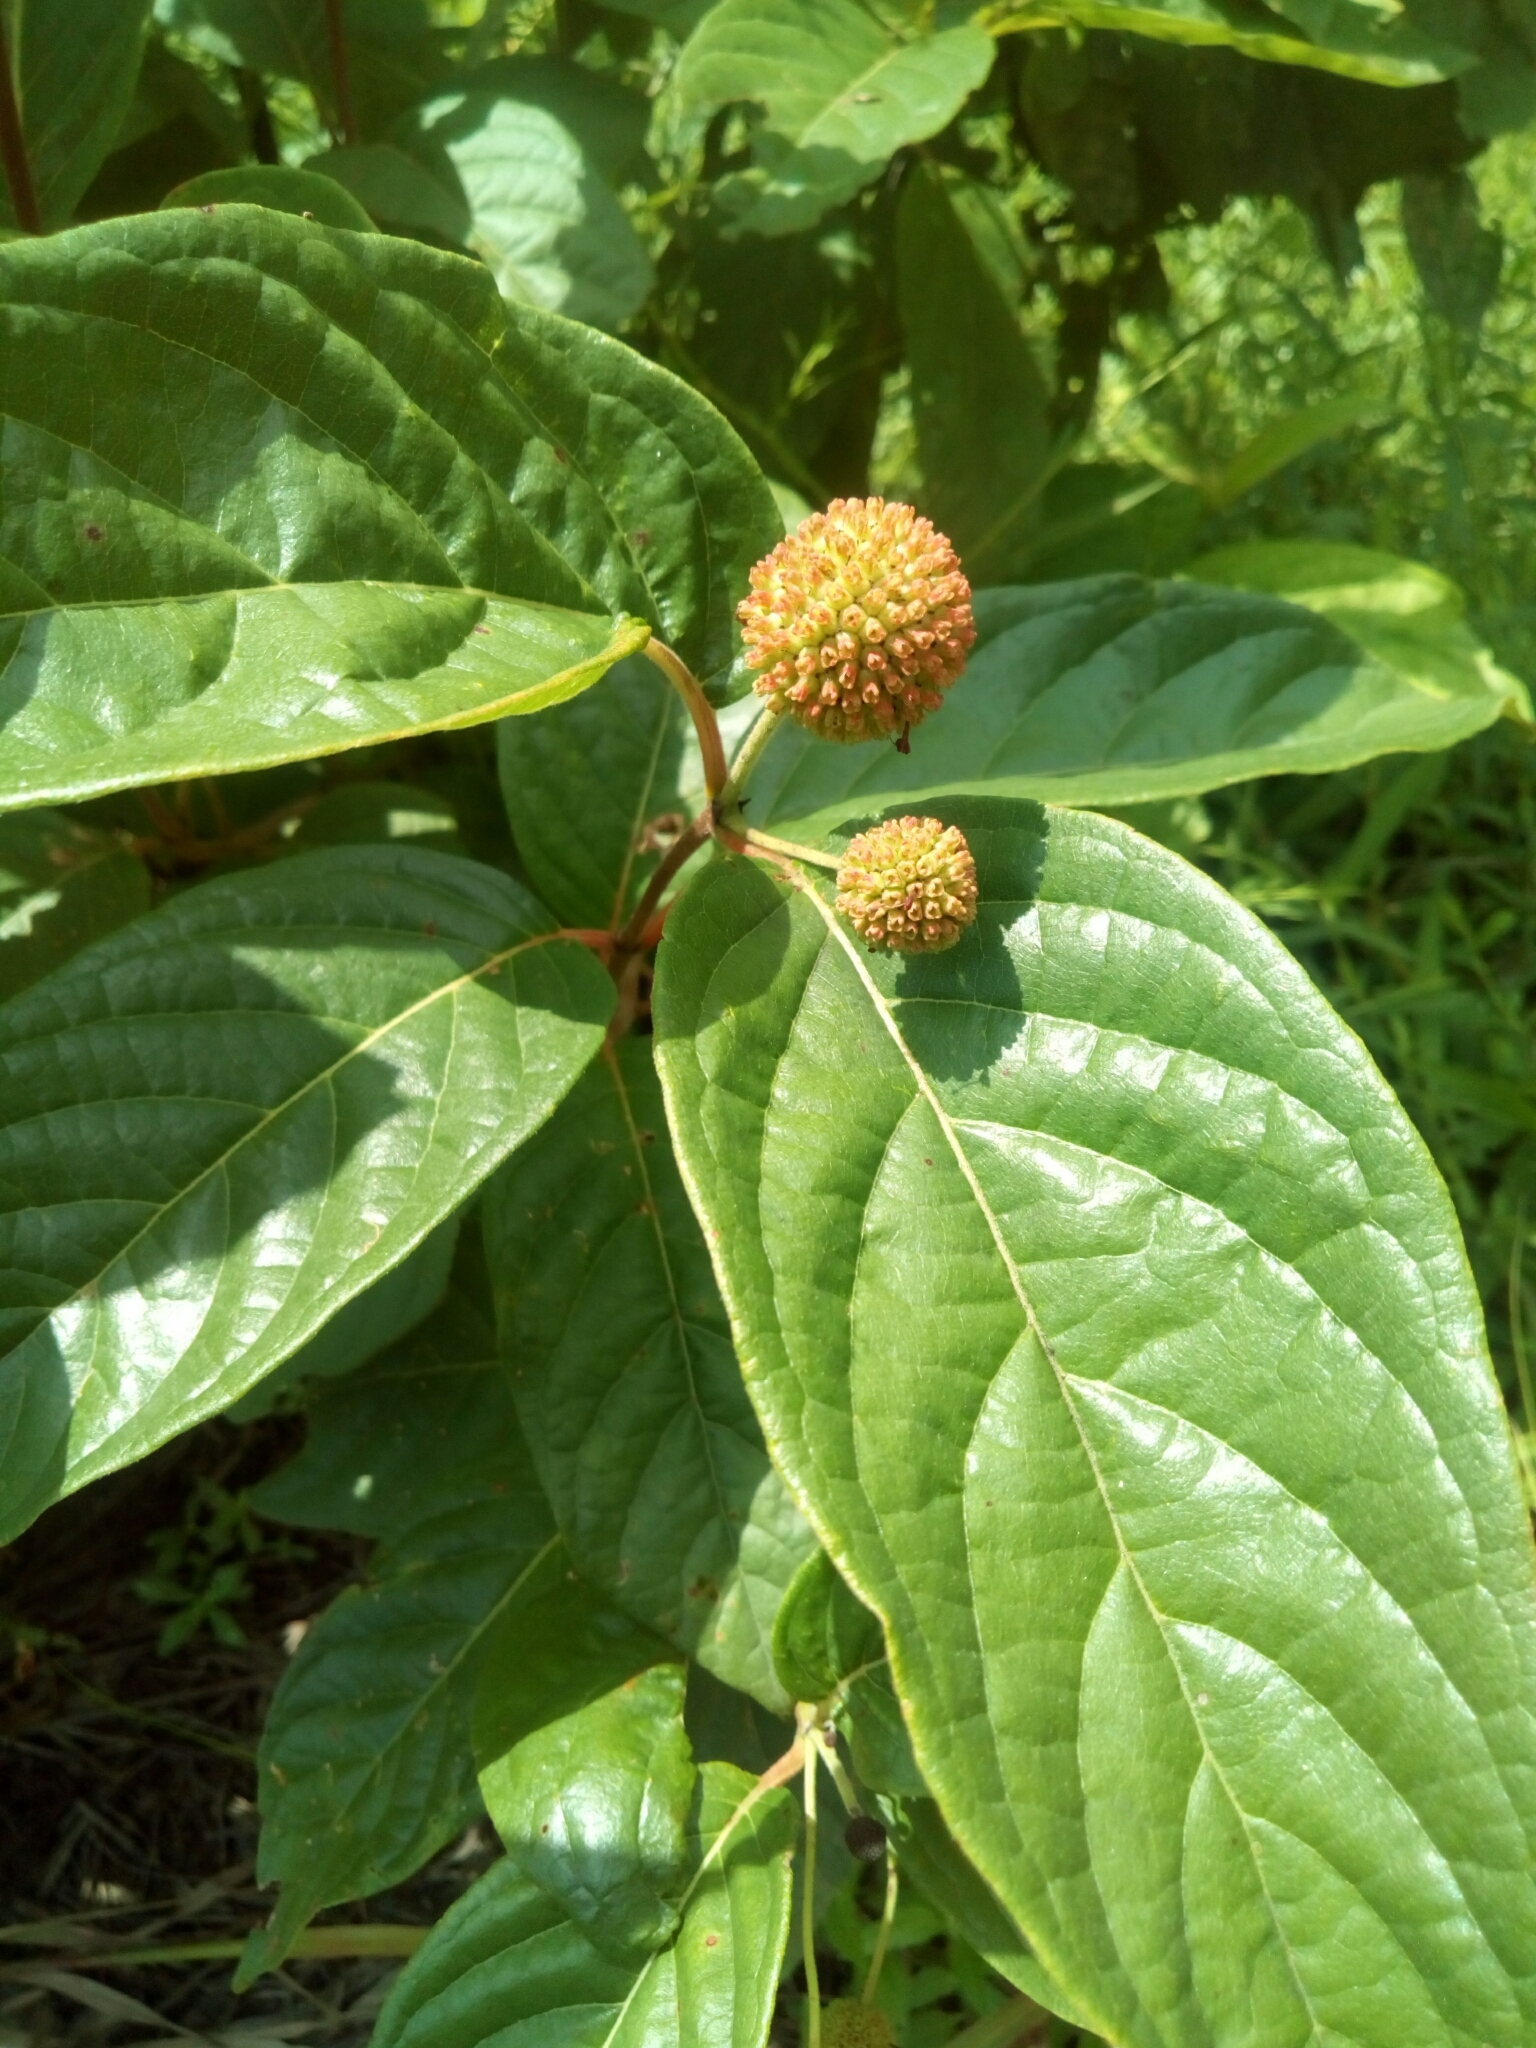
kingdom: Plantae
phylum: Tracheophyta
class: Magnoliopsida
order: Gentianales
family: Rubiaceae
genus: Cephalanthus
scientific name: Cephalanthus occidentalis
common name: Button-willow
